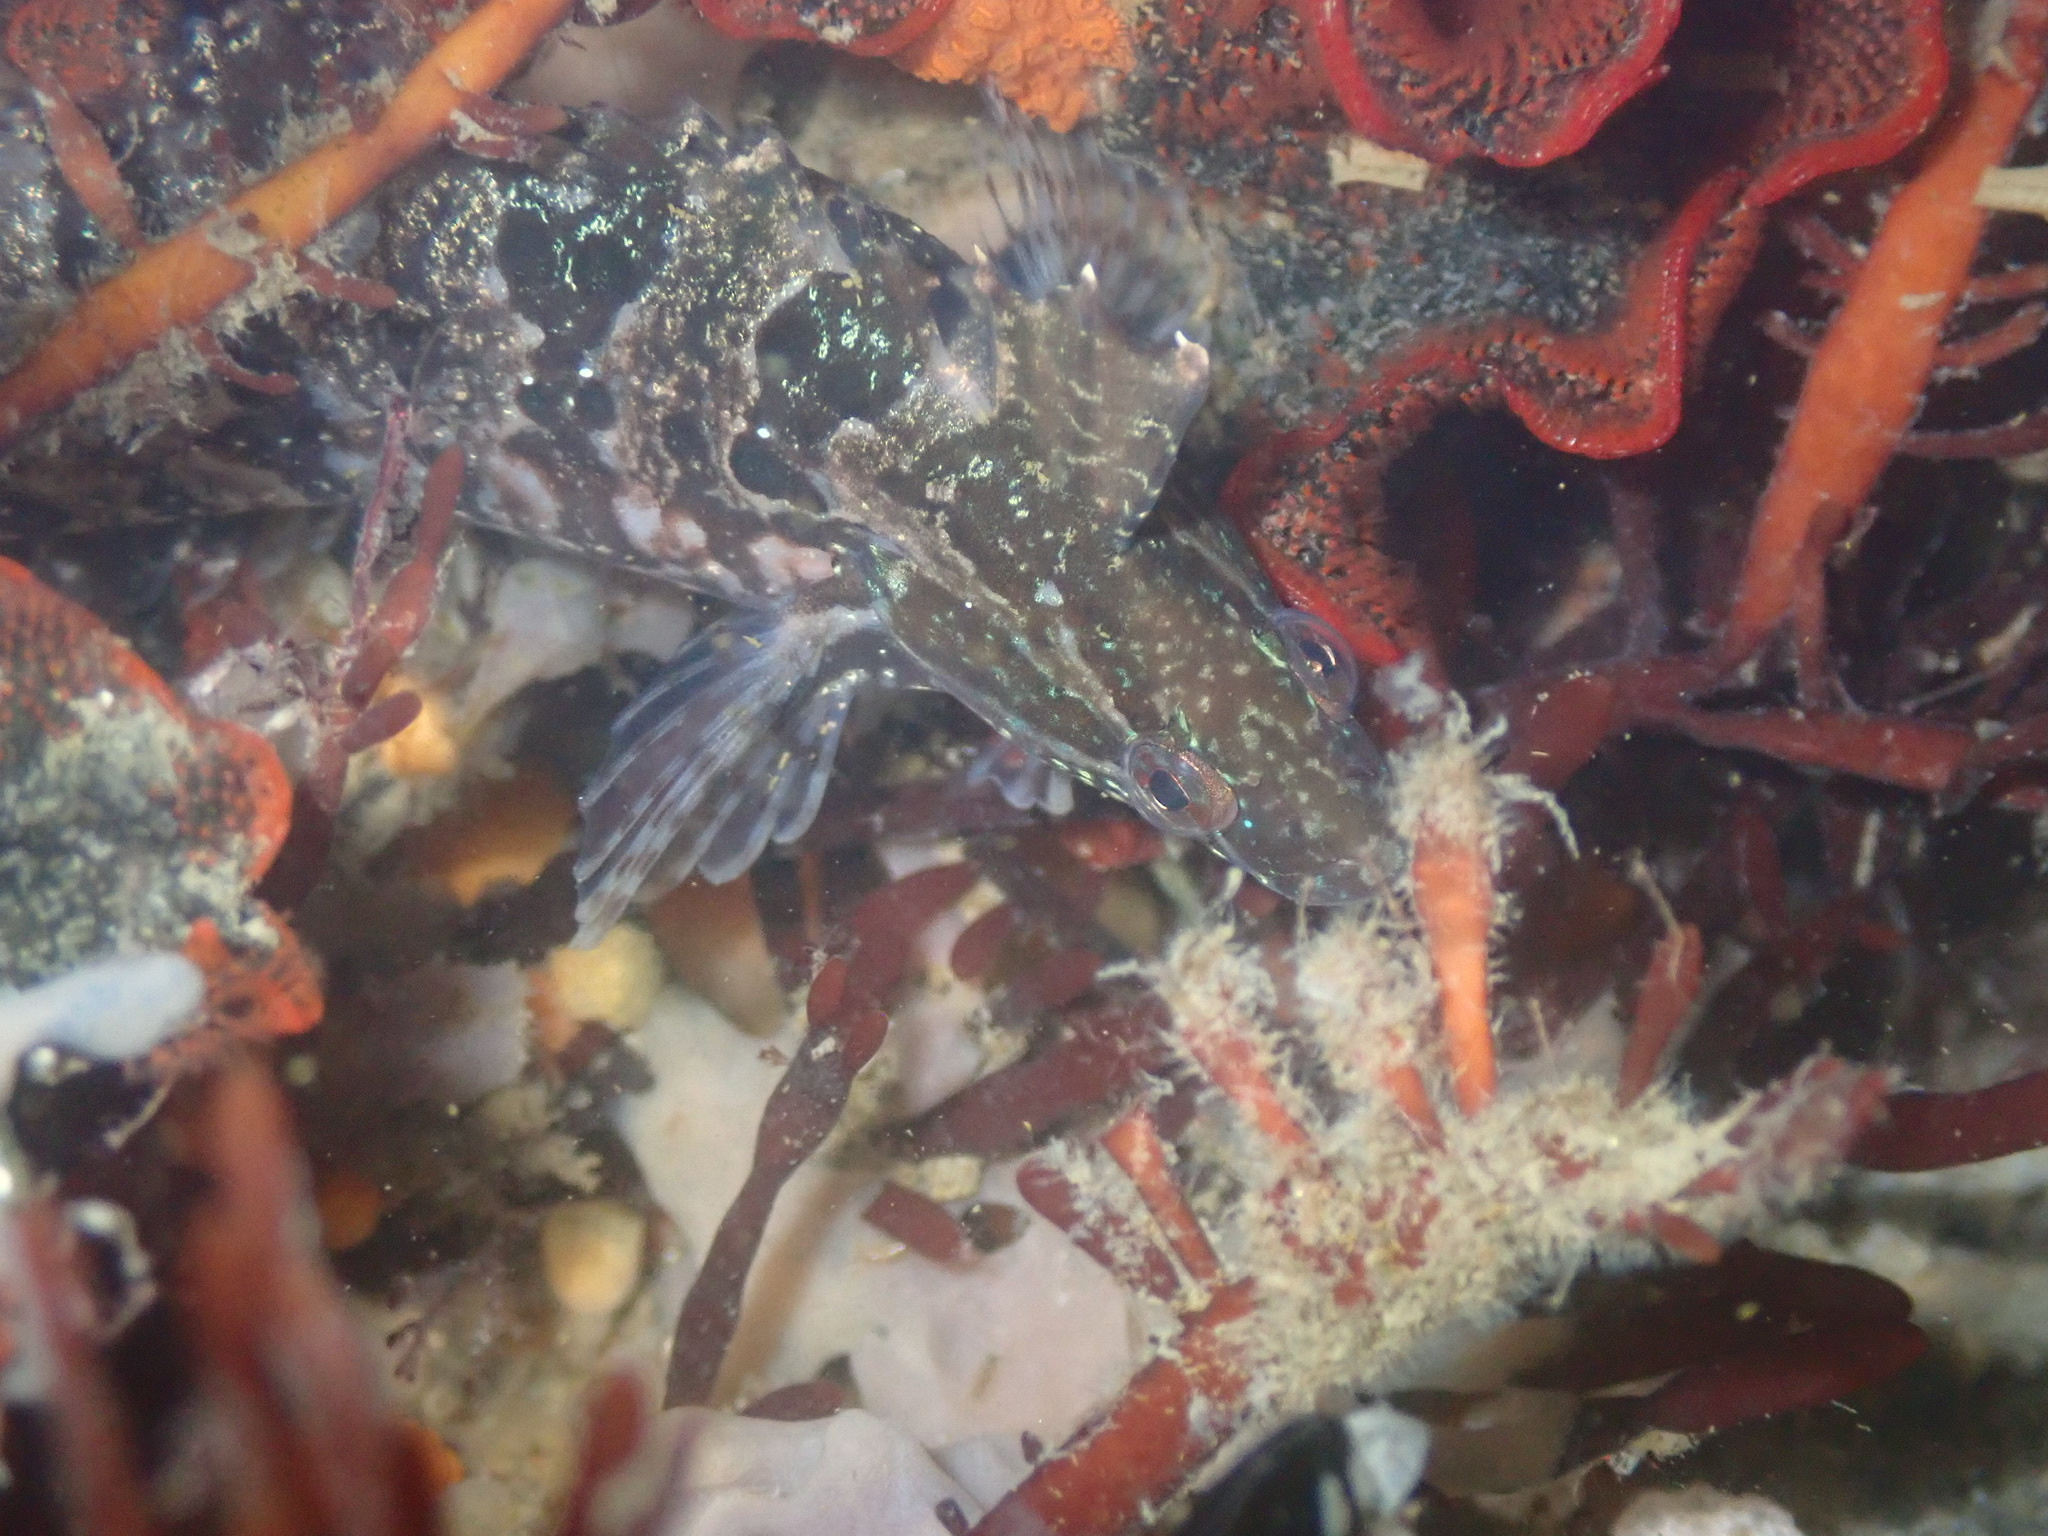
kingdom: Animalia
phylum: Chordata
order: Perciformes
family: Clinidae
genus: Gibbonsia
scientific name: Gibbonsia metzi
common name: Striped kelpfish
